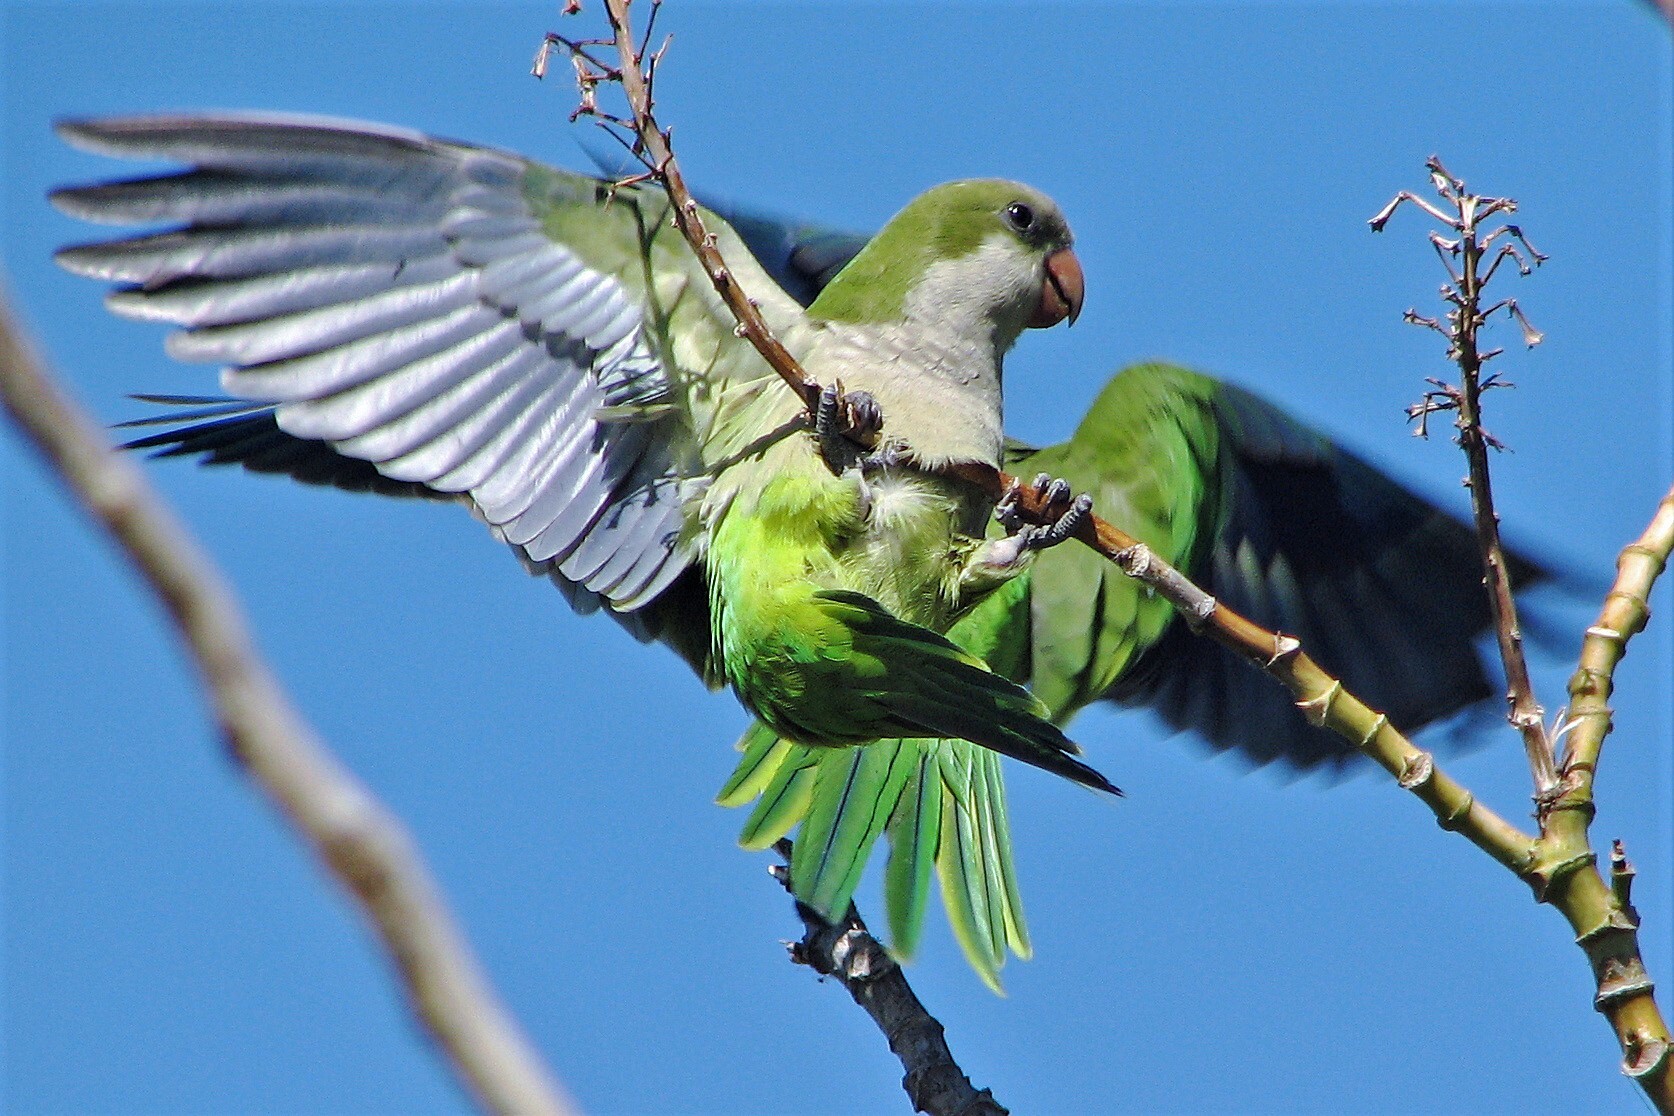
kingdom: Animalia
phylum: Chordata
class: Aves
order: Psittaciformes
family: Psittacidae
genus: Myiopsitta
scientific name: Myiopsitta monachus
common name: Monk parakeet
